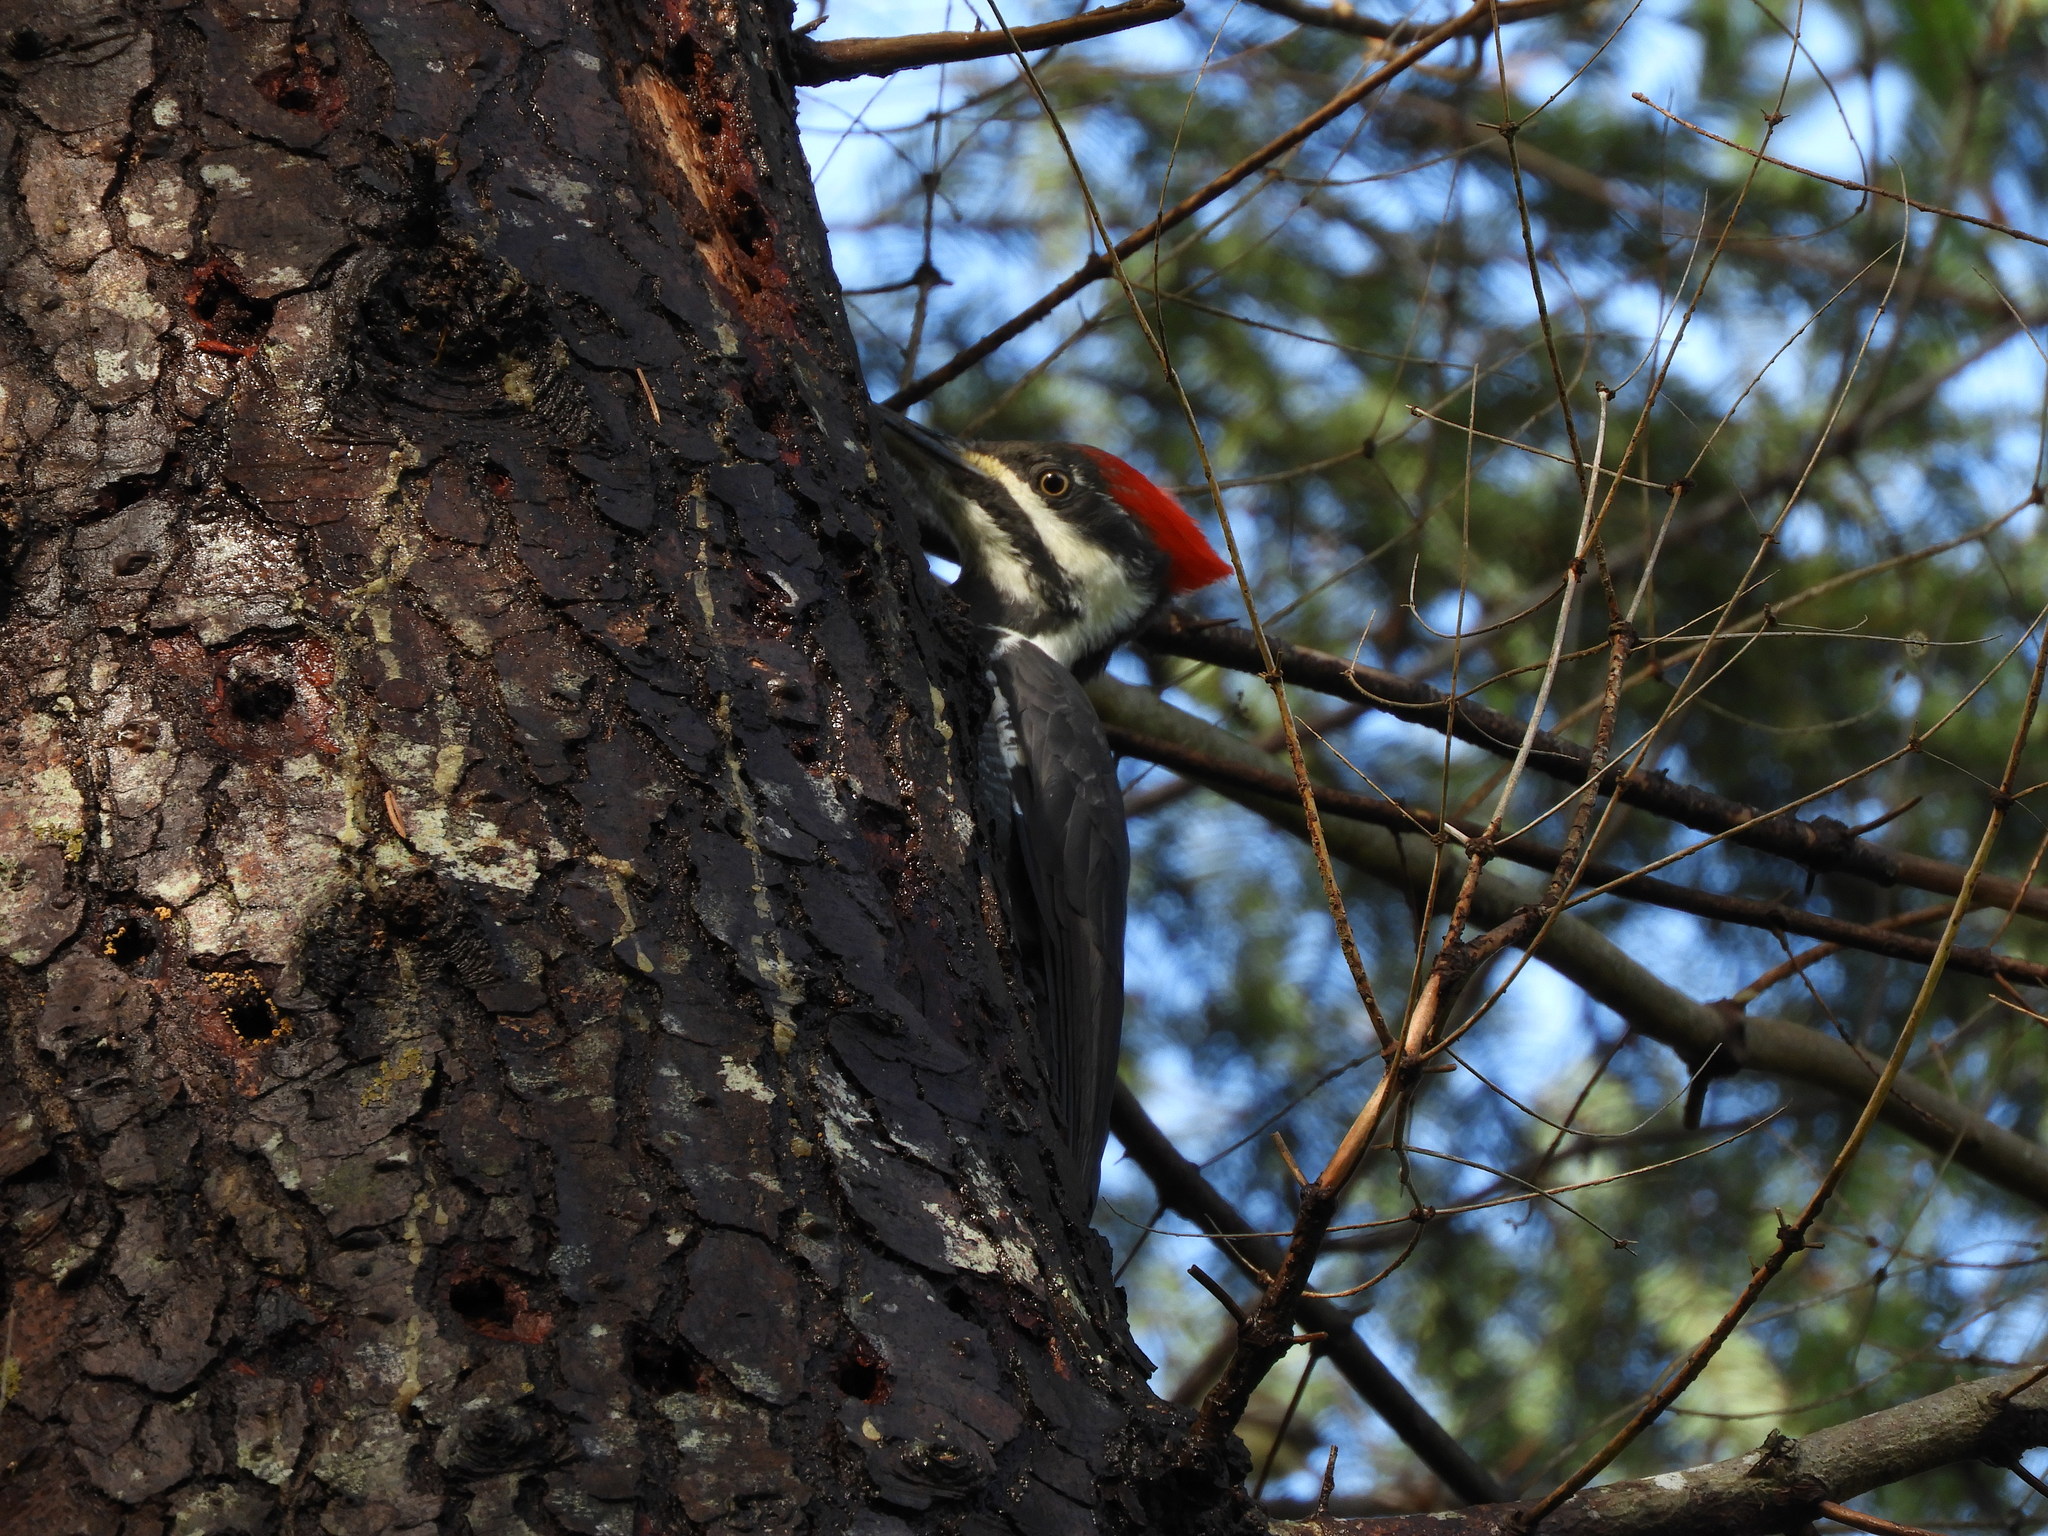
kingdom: Animalia
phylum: Chordata
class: Aves
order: Piciformes
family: Picidae
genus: Dryocopus
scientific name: Dryocopus pileatus
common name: Pileated woodpecker
